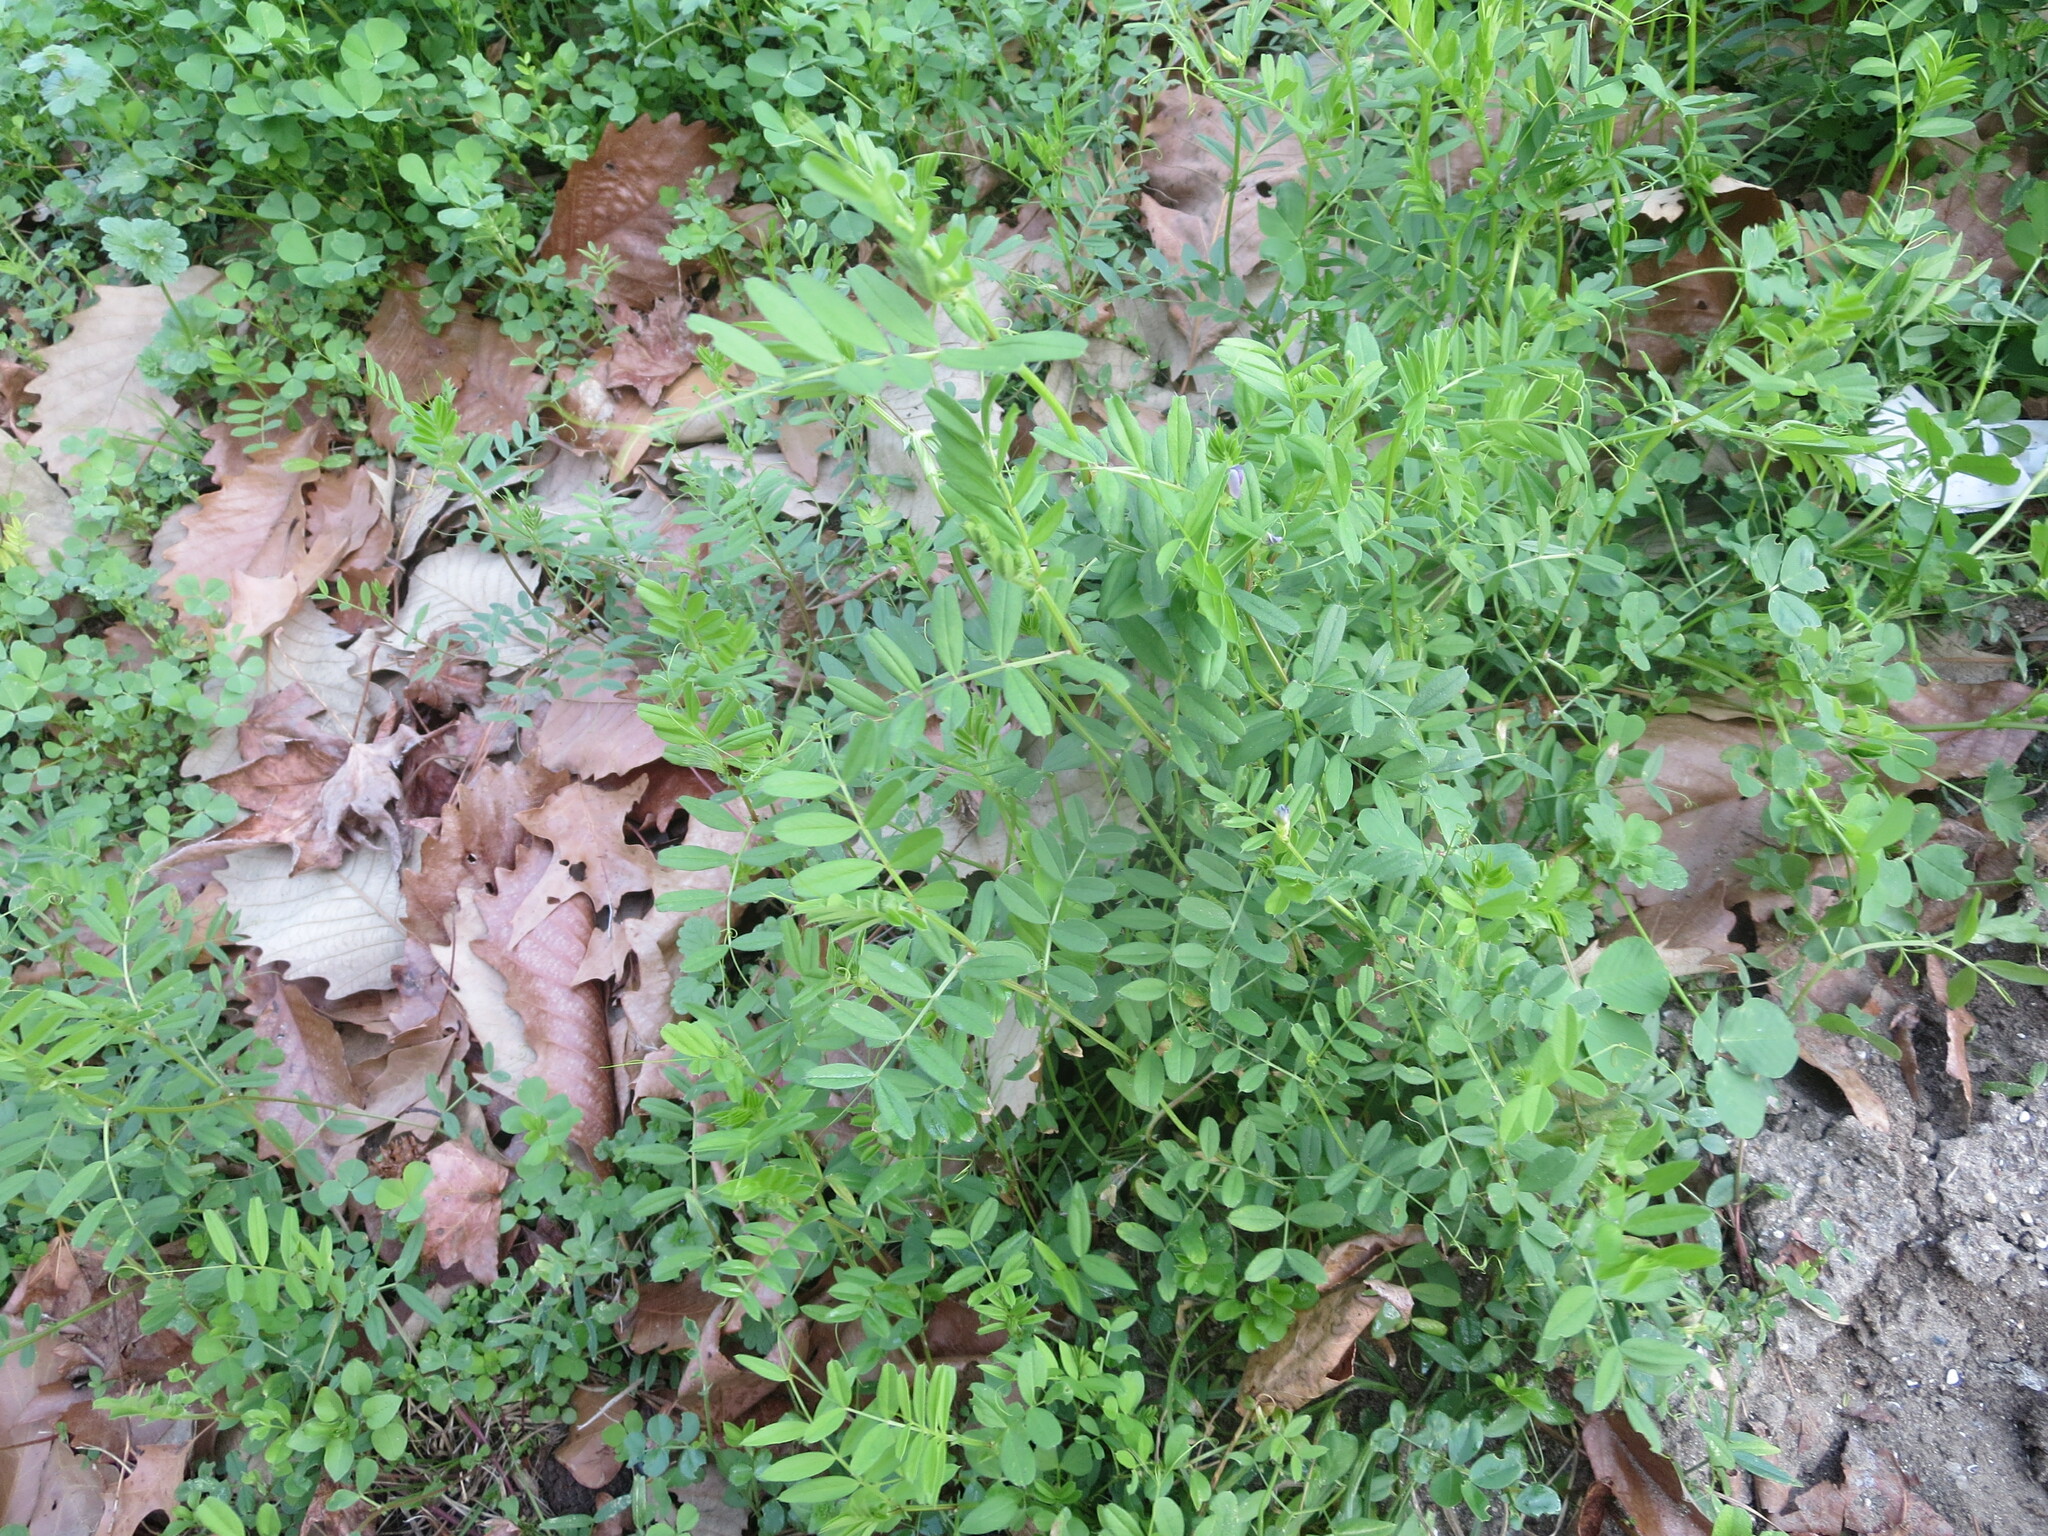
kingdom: Plantae
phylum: Tracheophyta
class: Magnoliopsida
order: Fabales
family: Fabaceae
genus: Vicia
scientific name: Vicia sativa
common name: Garden vetch
